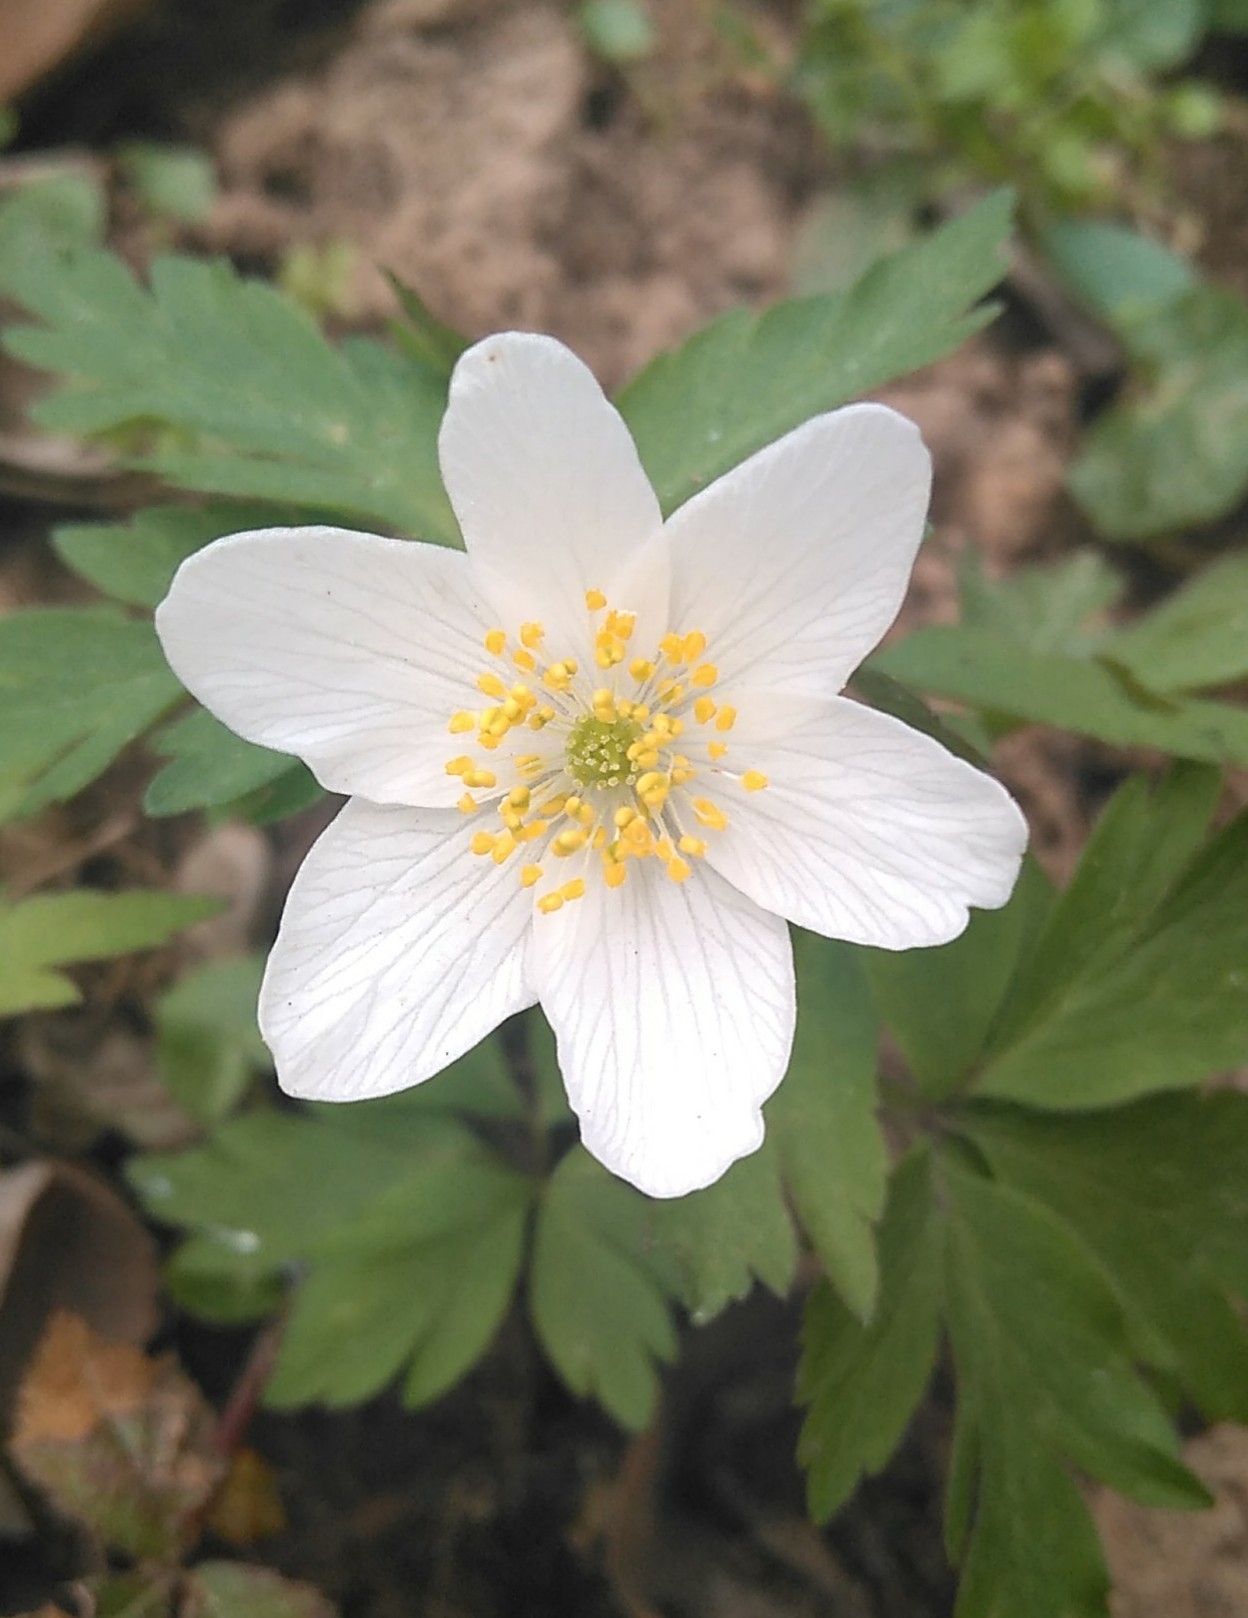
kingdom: Plantae
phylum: Tracheophyta
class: Magnoliopsida
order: Ranunculales
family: Ranunculaceae
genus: Anemone
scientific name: Anemone nemorosa
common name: Wood anemone
